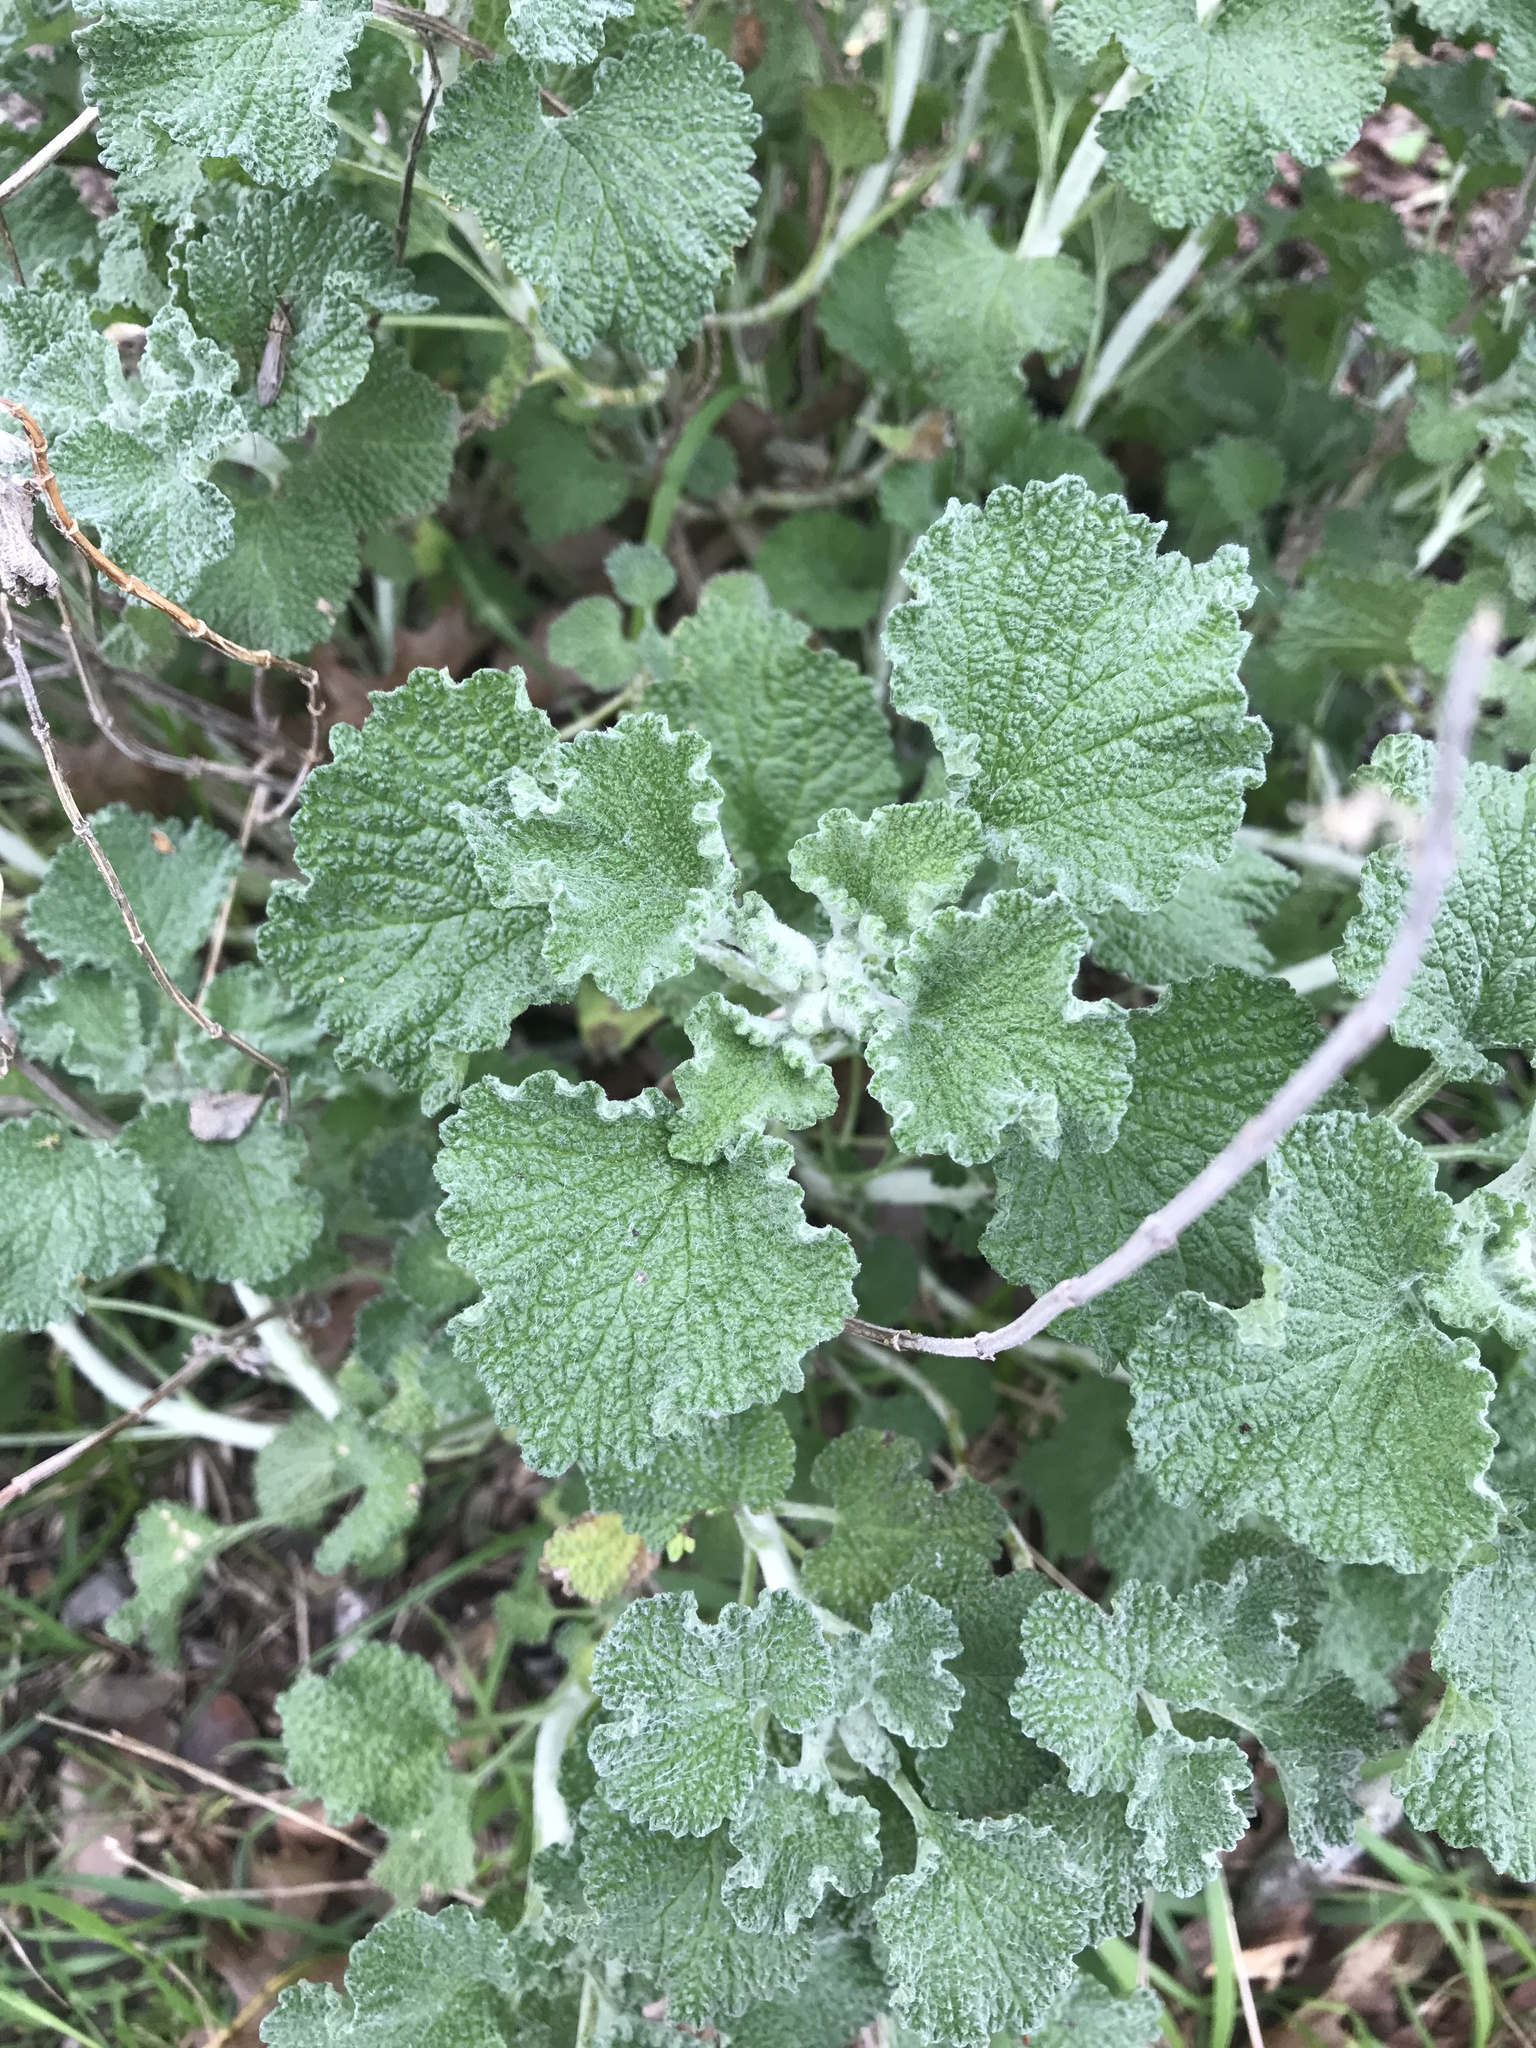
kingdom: Plantae
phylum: Tracheophyta
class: Magnoliopsida
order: Lamiales
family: Lamiaceae
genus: Marrubium
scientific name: Marrubium vulgare
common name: Horehound
